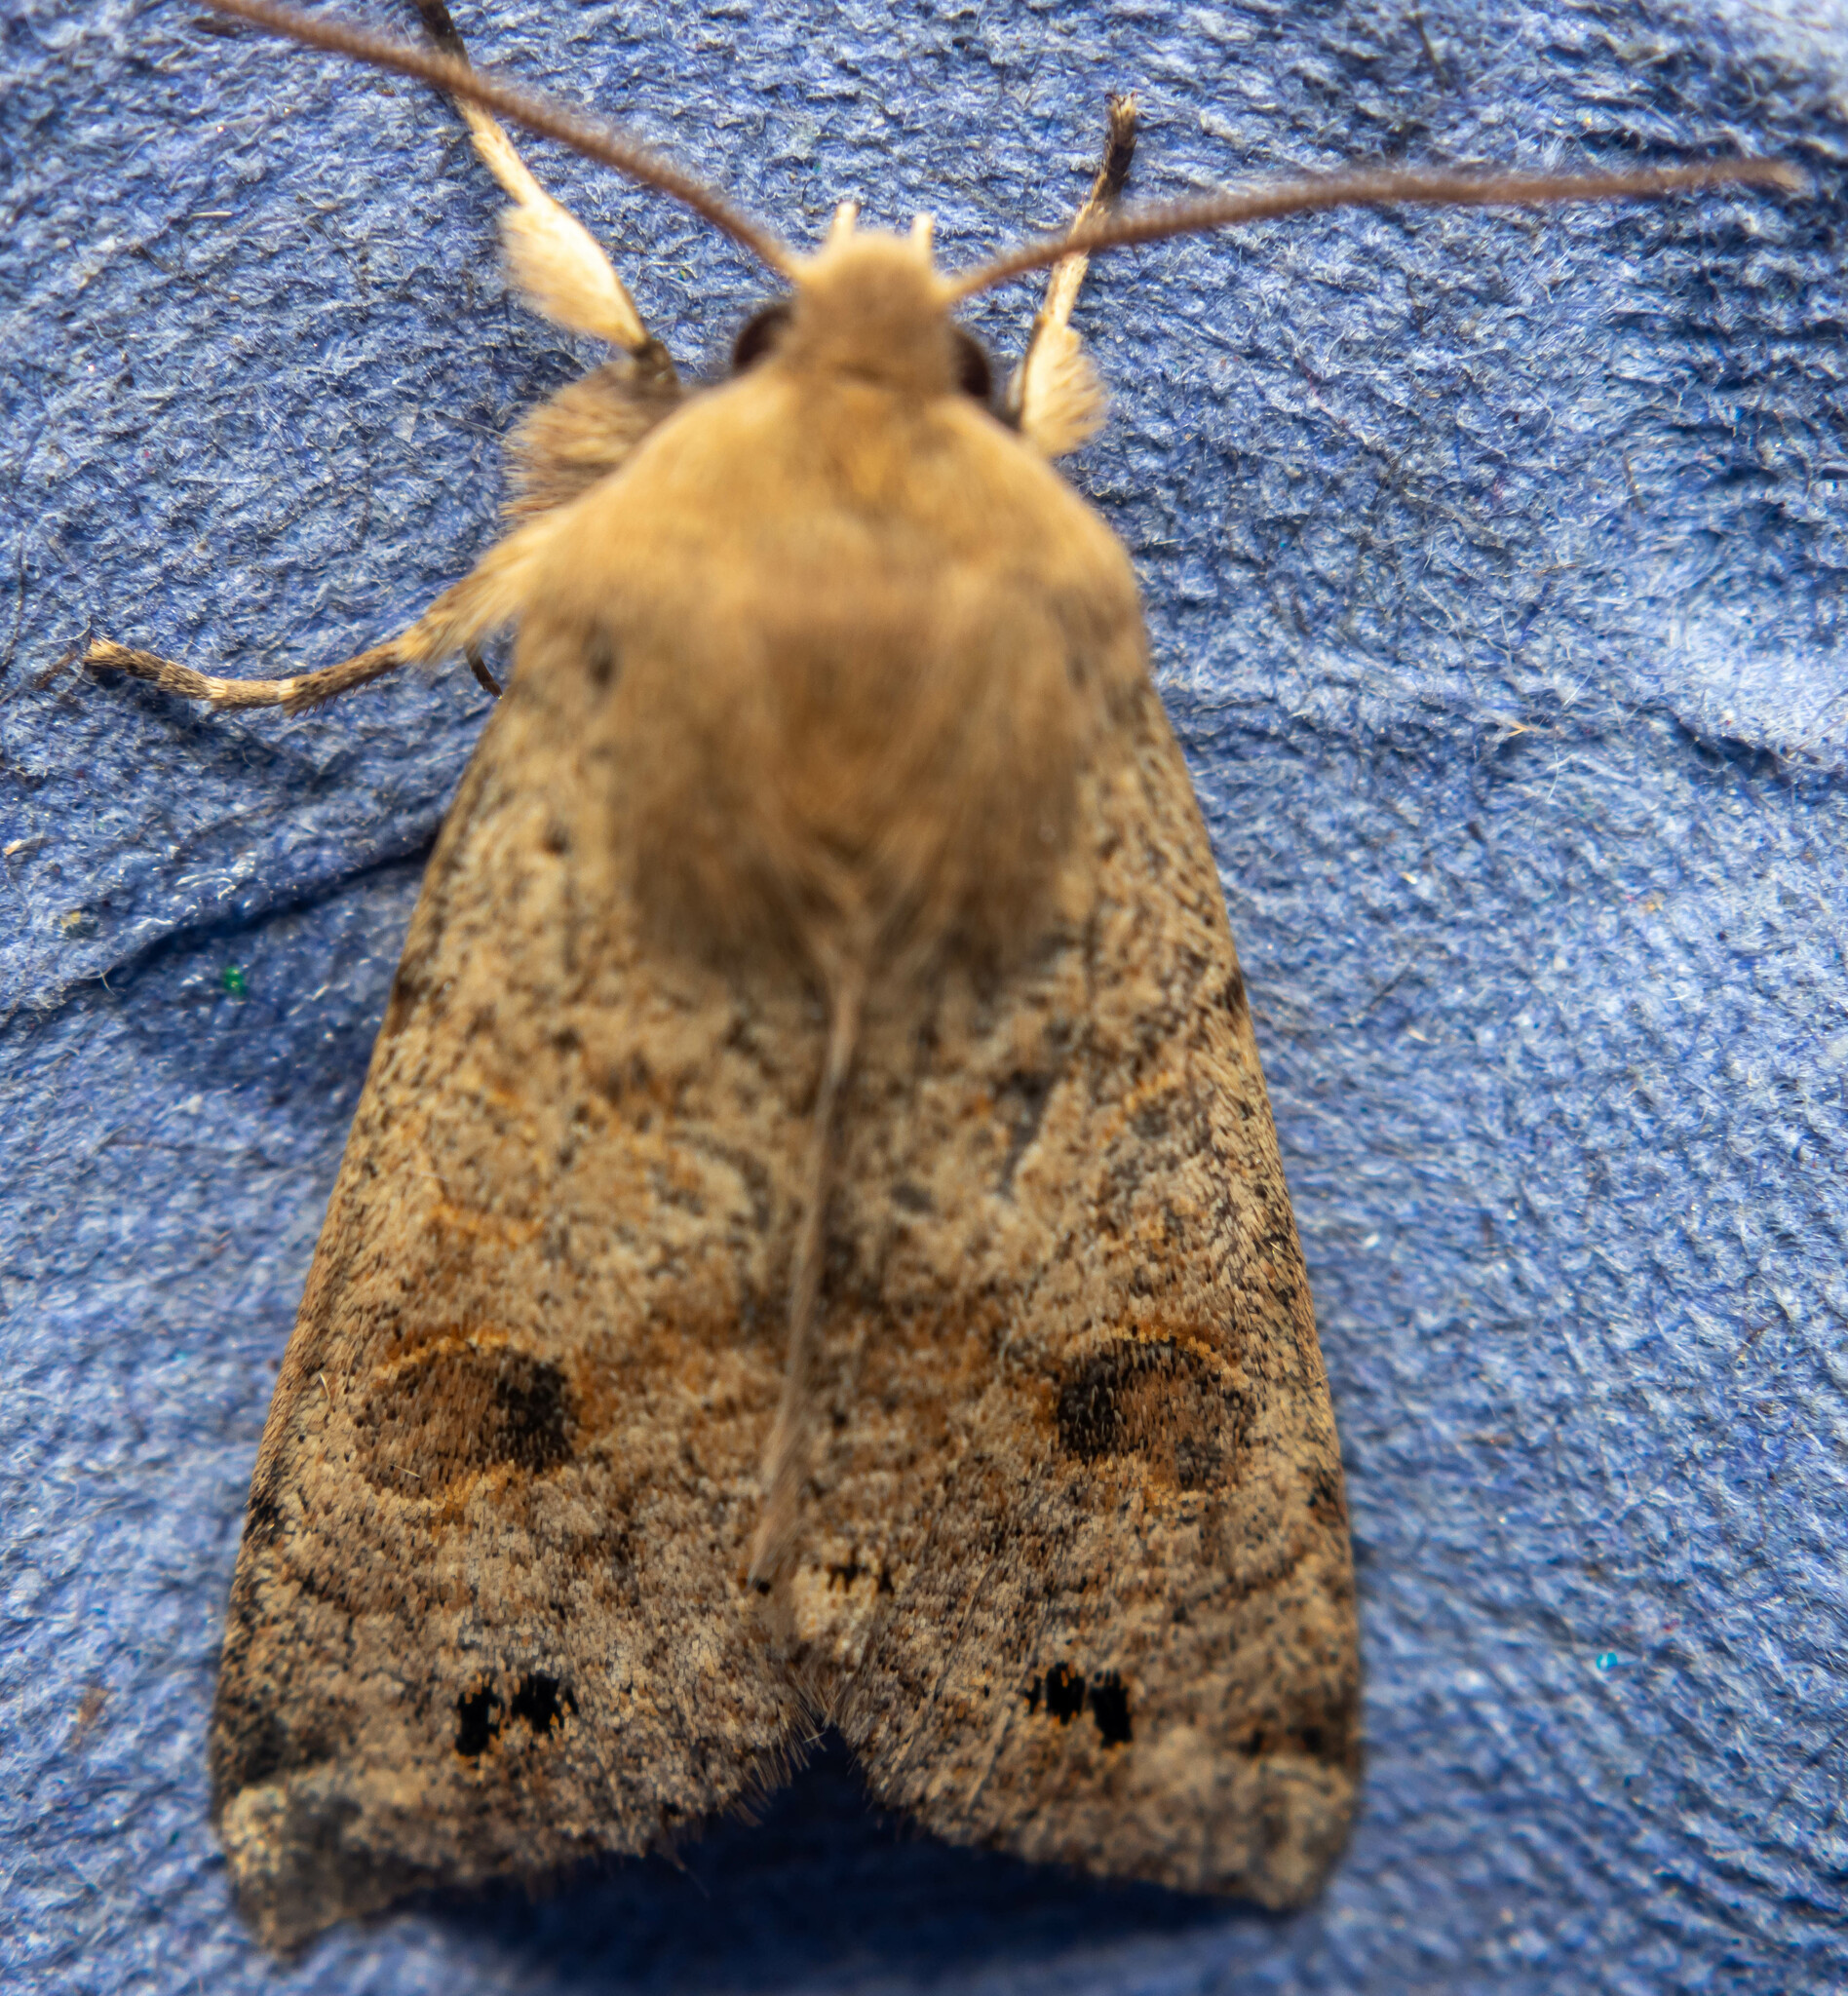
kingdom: Animalia
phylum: Arthropoda
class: Insecta
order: Lepidoptera
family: Noctuidae
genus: Anorthoa
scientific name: Anorthoa munda
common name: Twin-spotted quaker
